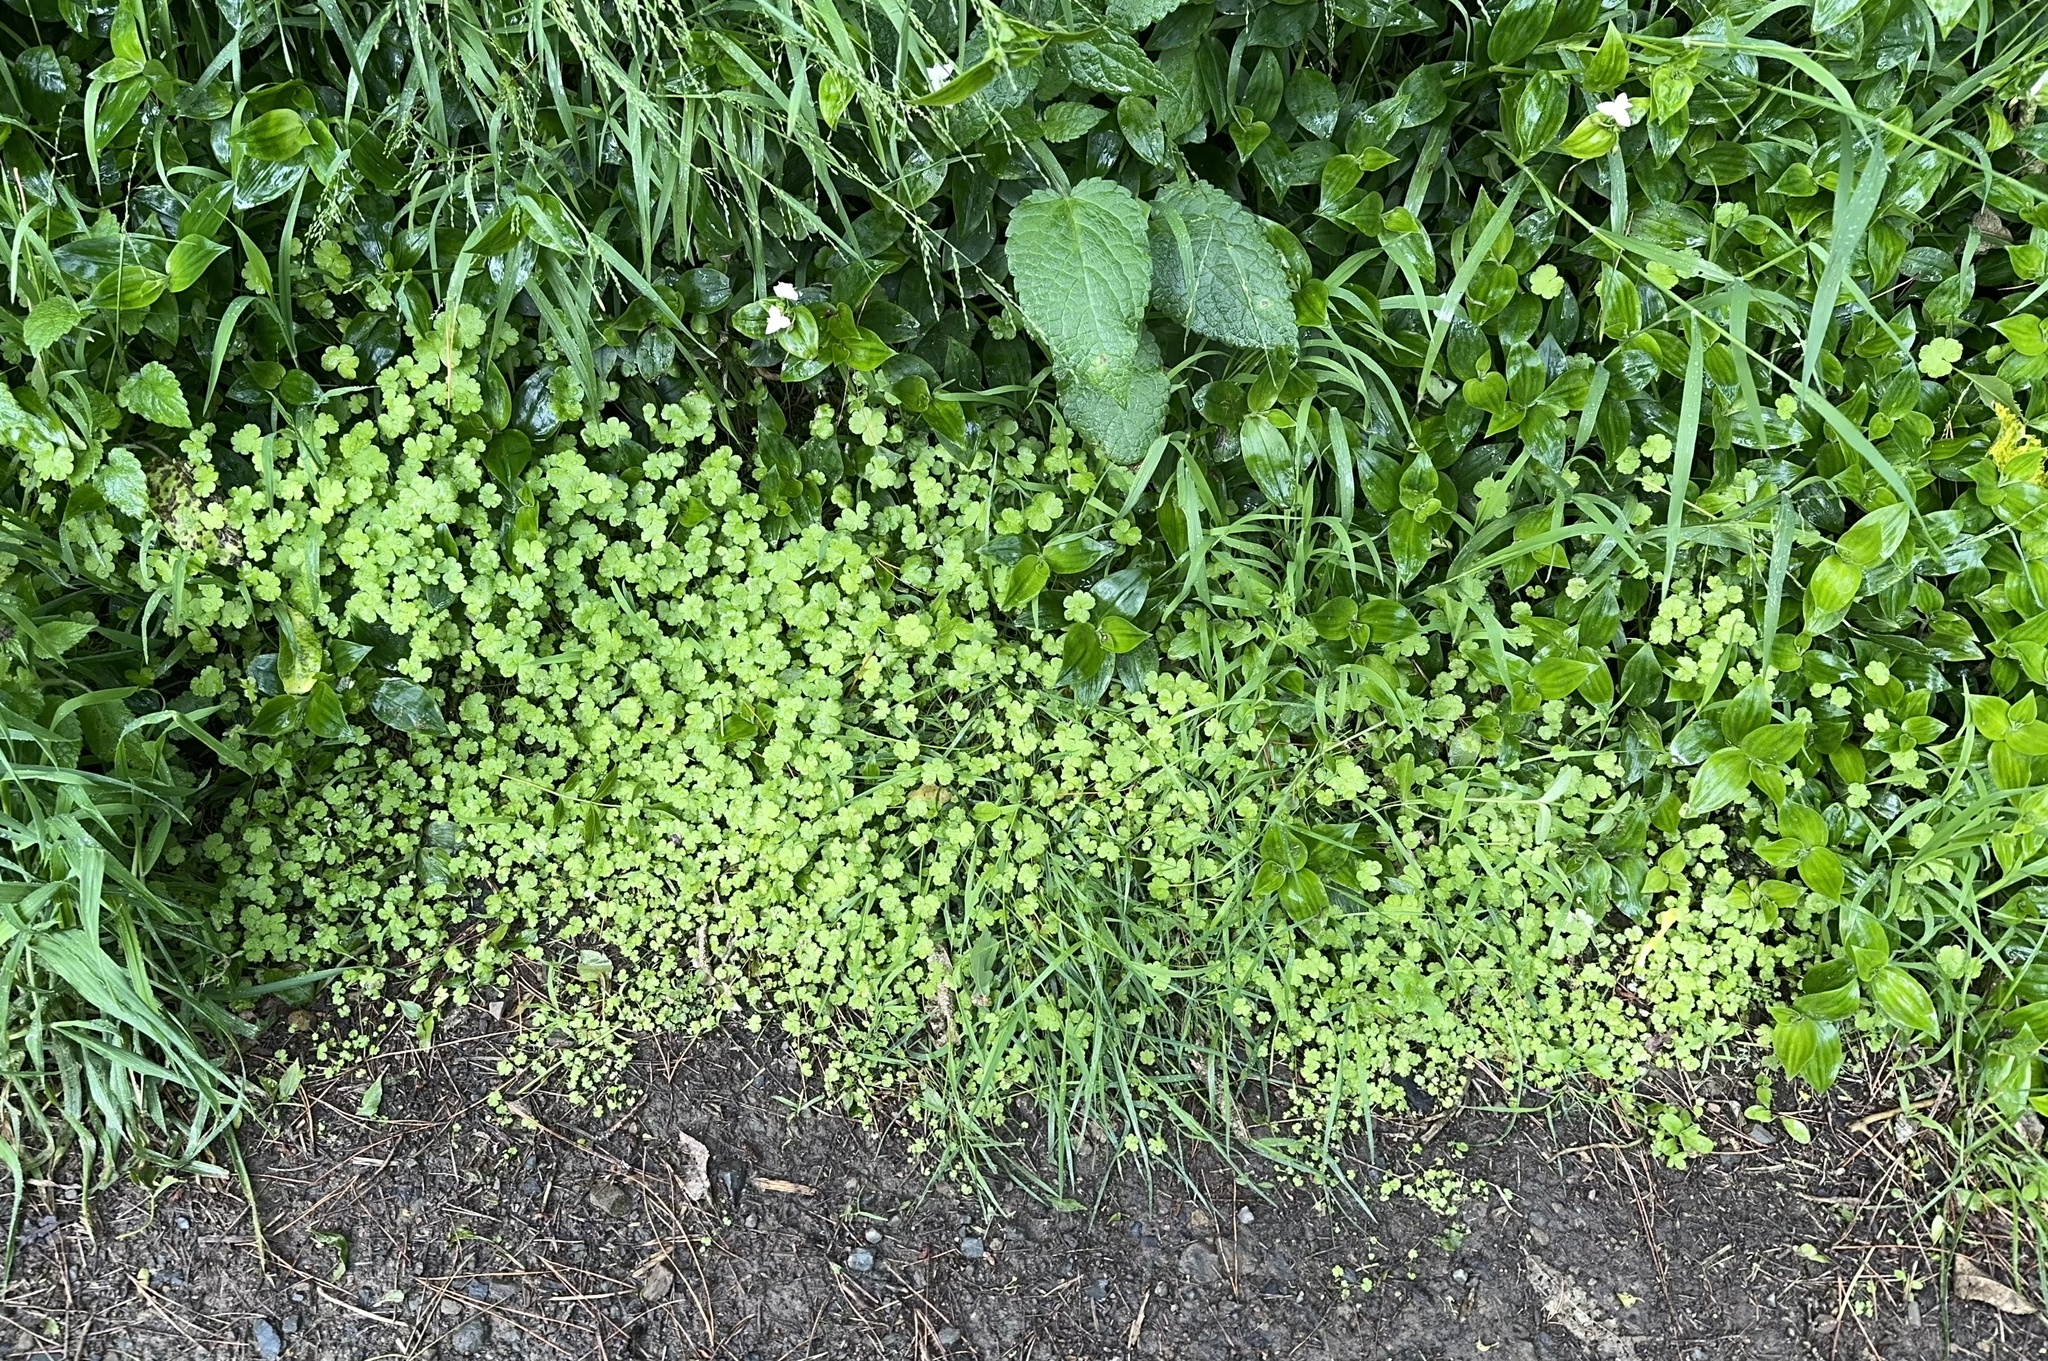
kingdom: Plantae
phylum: Tracheophyta
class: Magnoliopsida
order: Apiales
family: Araliaceae
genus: Hydrocotyle
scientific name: Hydrocotyle heteromeria
